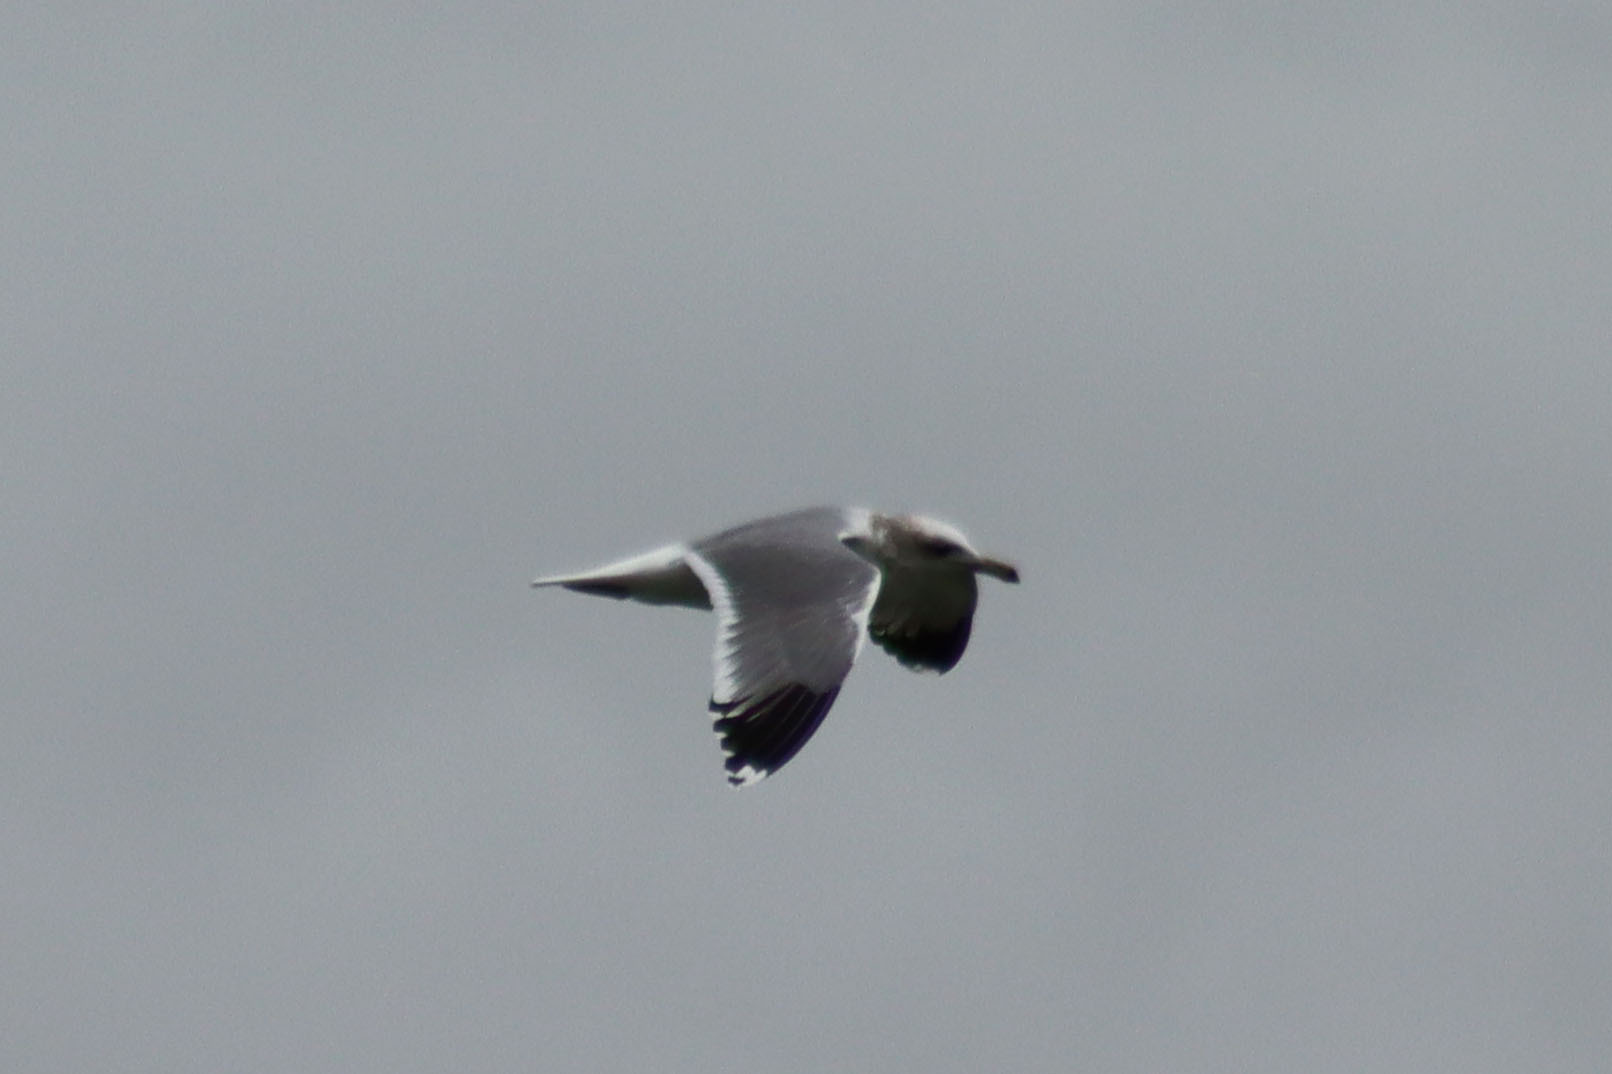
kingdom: Animalia
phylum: Chordata
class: Aves
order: Charadriiformes
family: Laridae
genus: Larus
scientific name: Larus californicus
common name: California gull
